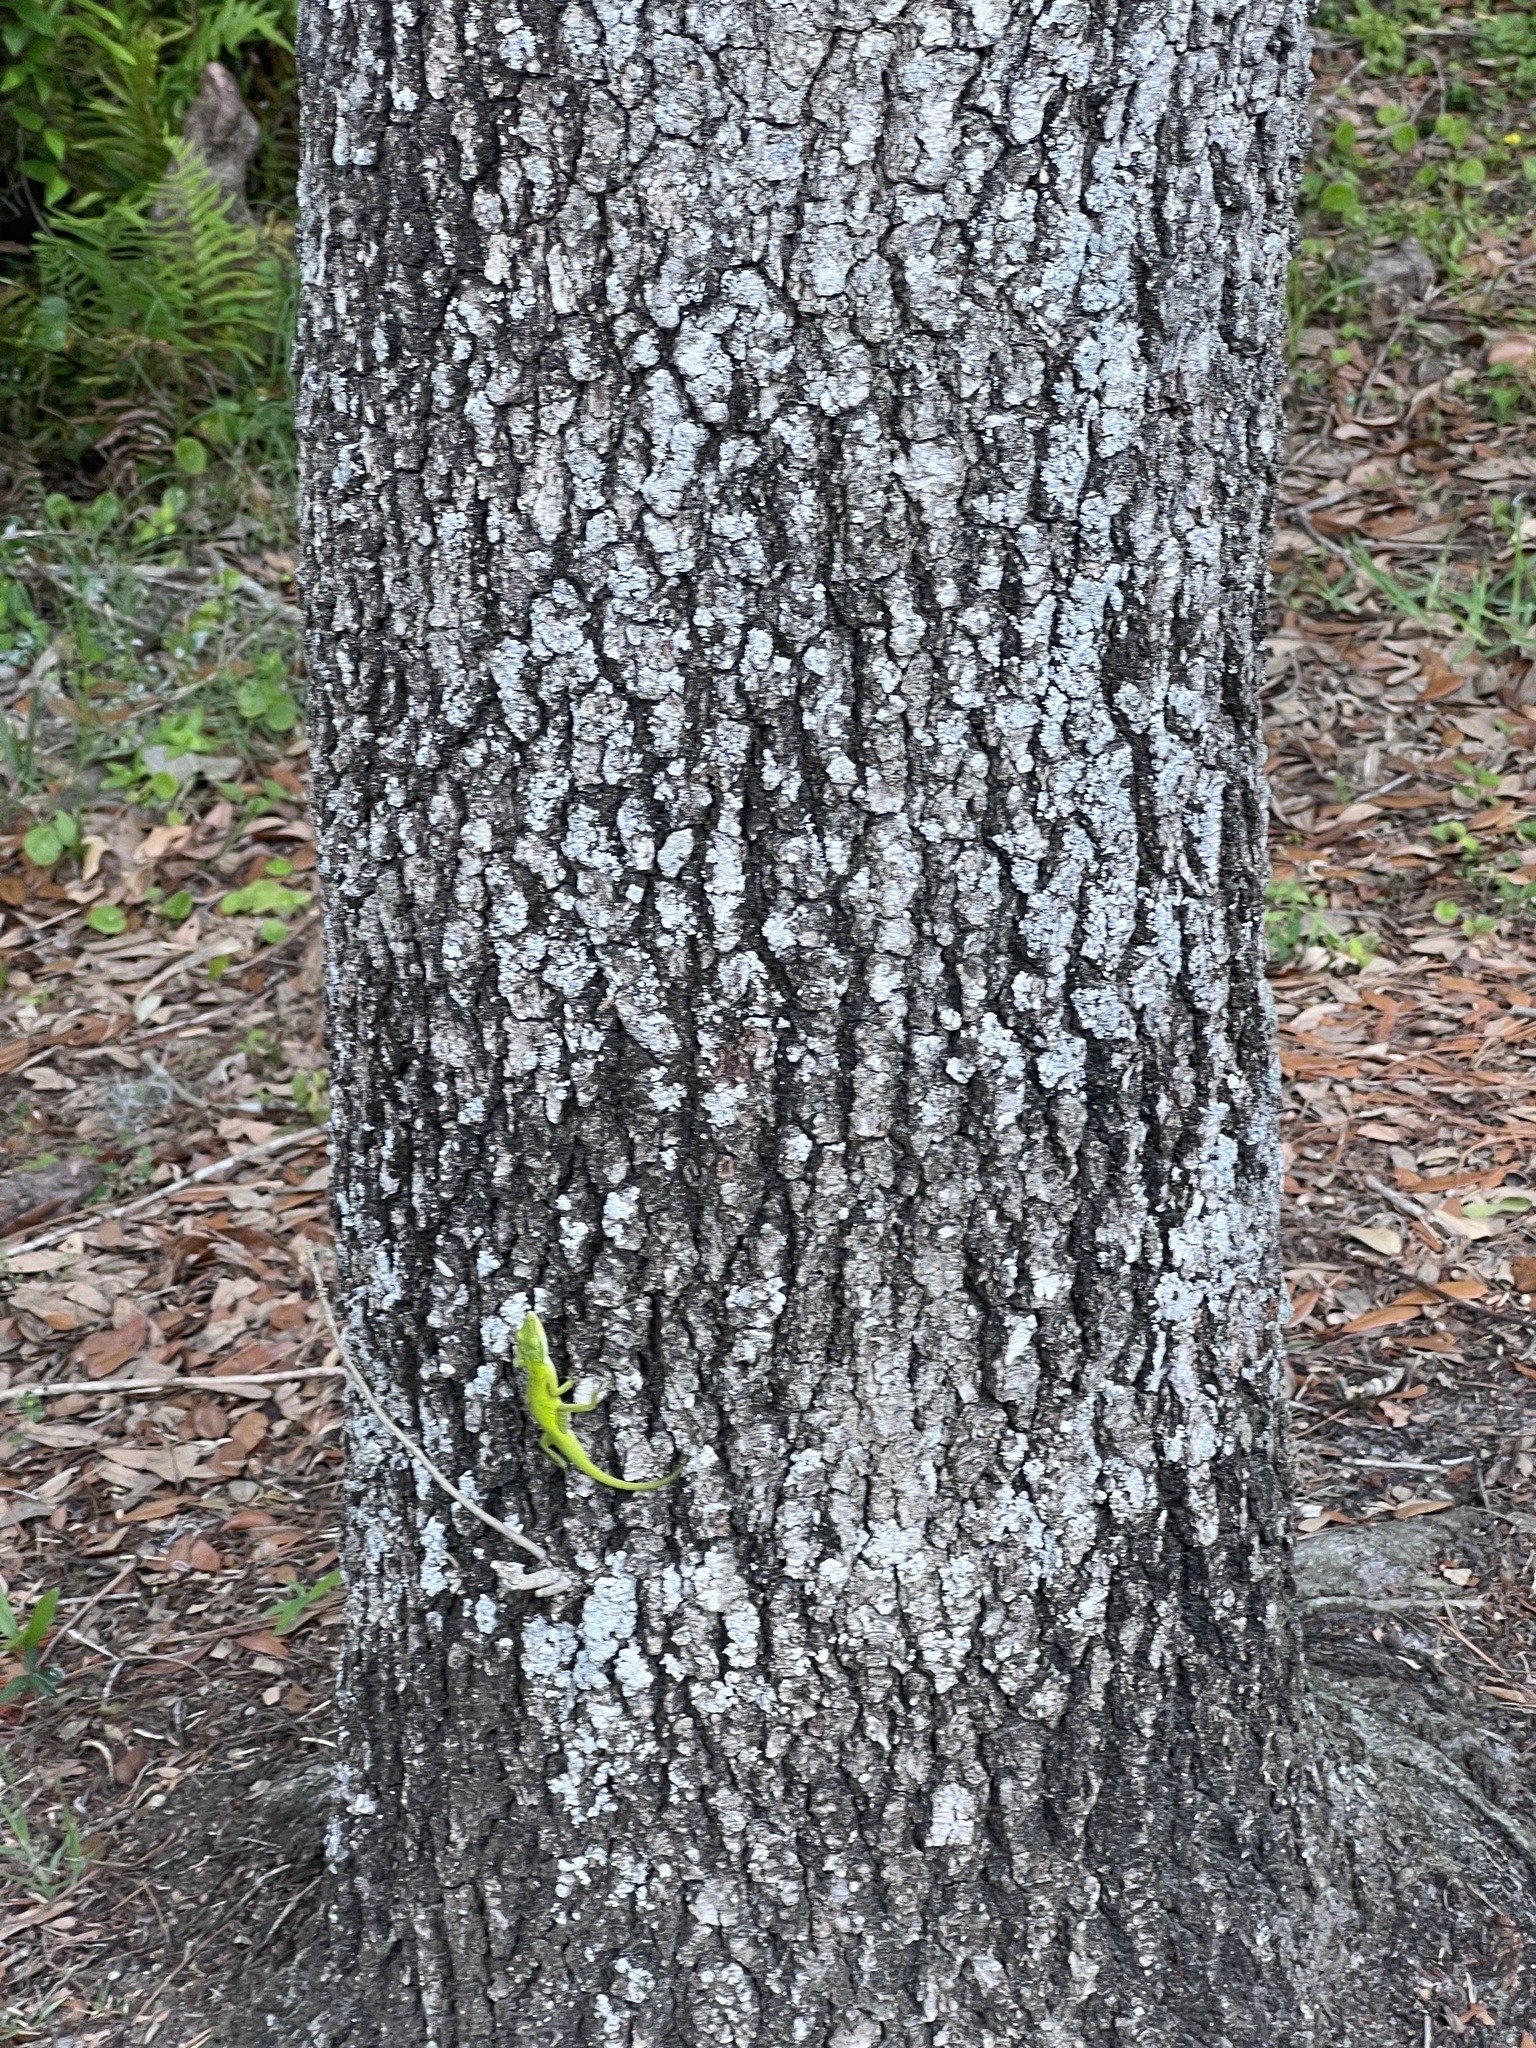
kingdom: Animalia
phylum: Chordata
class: Squamata
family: Dactyloidae
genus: Anolis
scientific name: Anolis carolinensis
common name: Green anole
